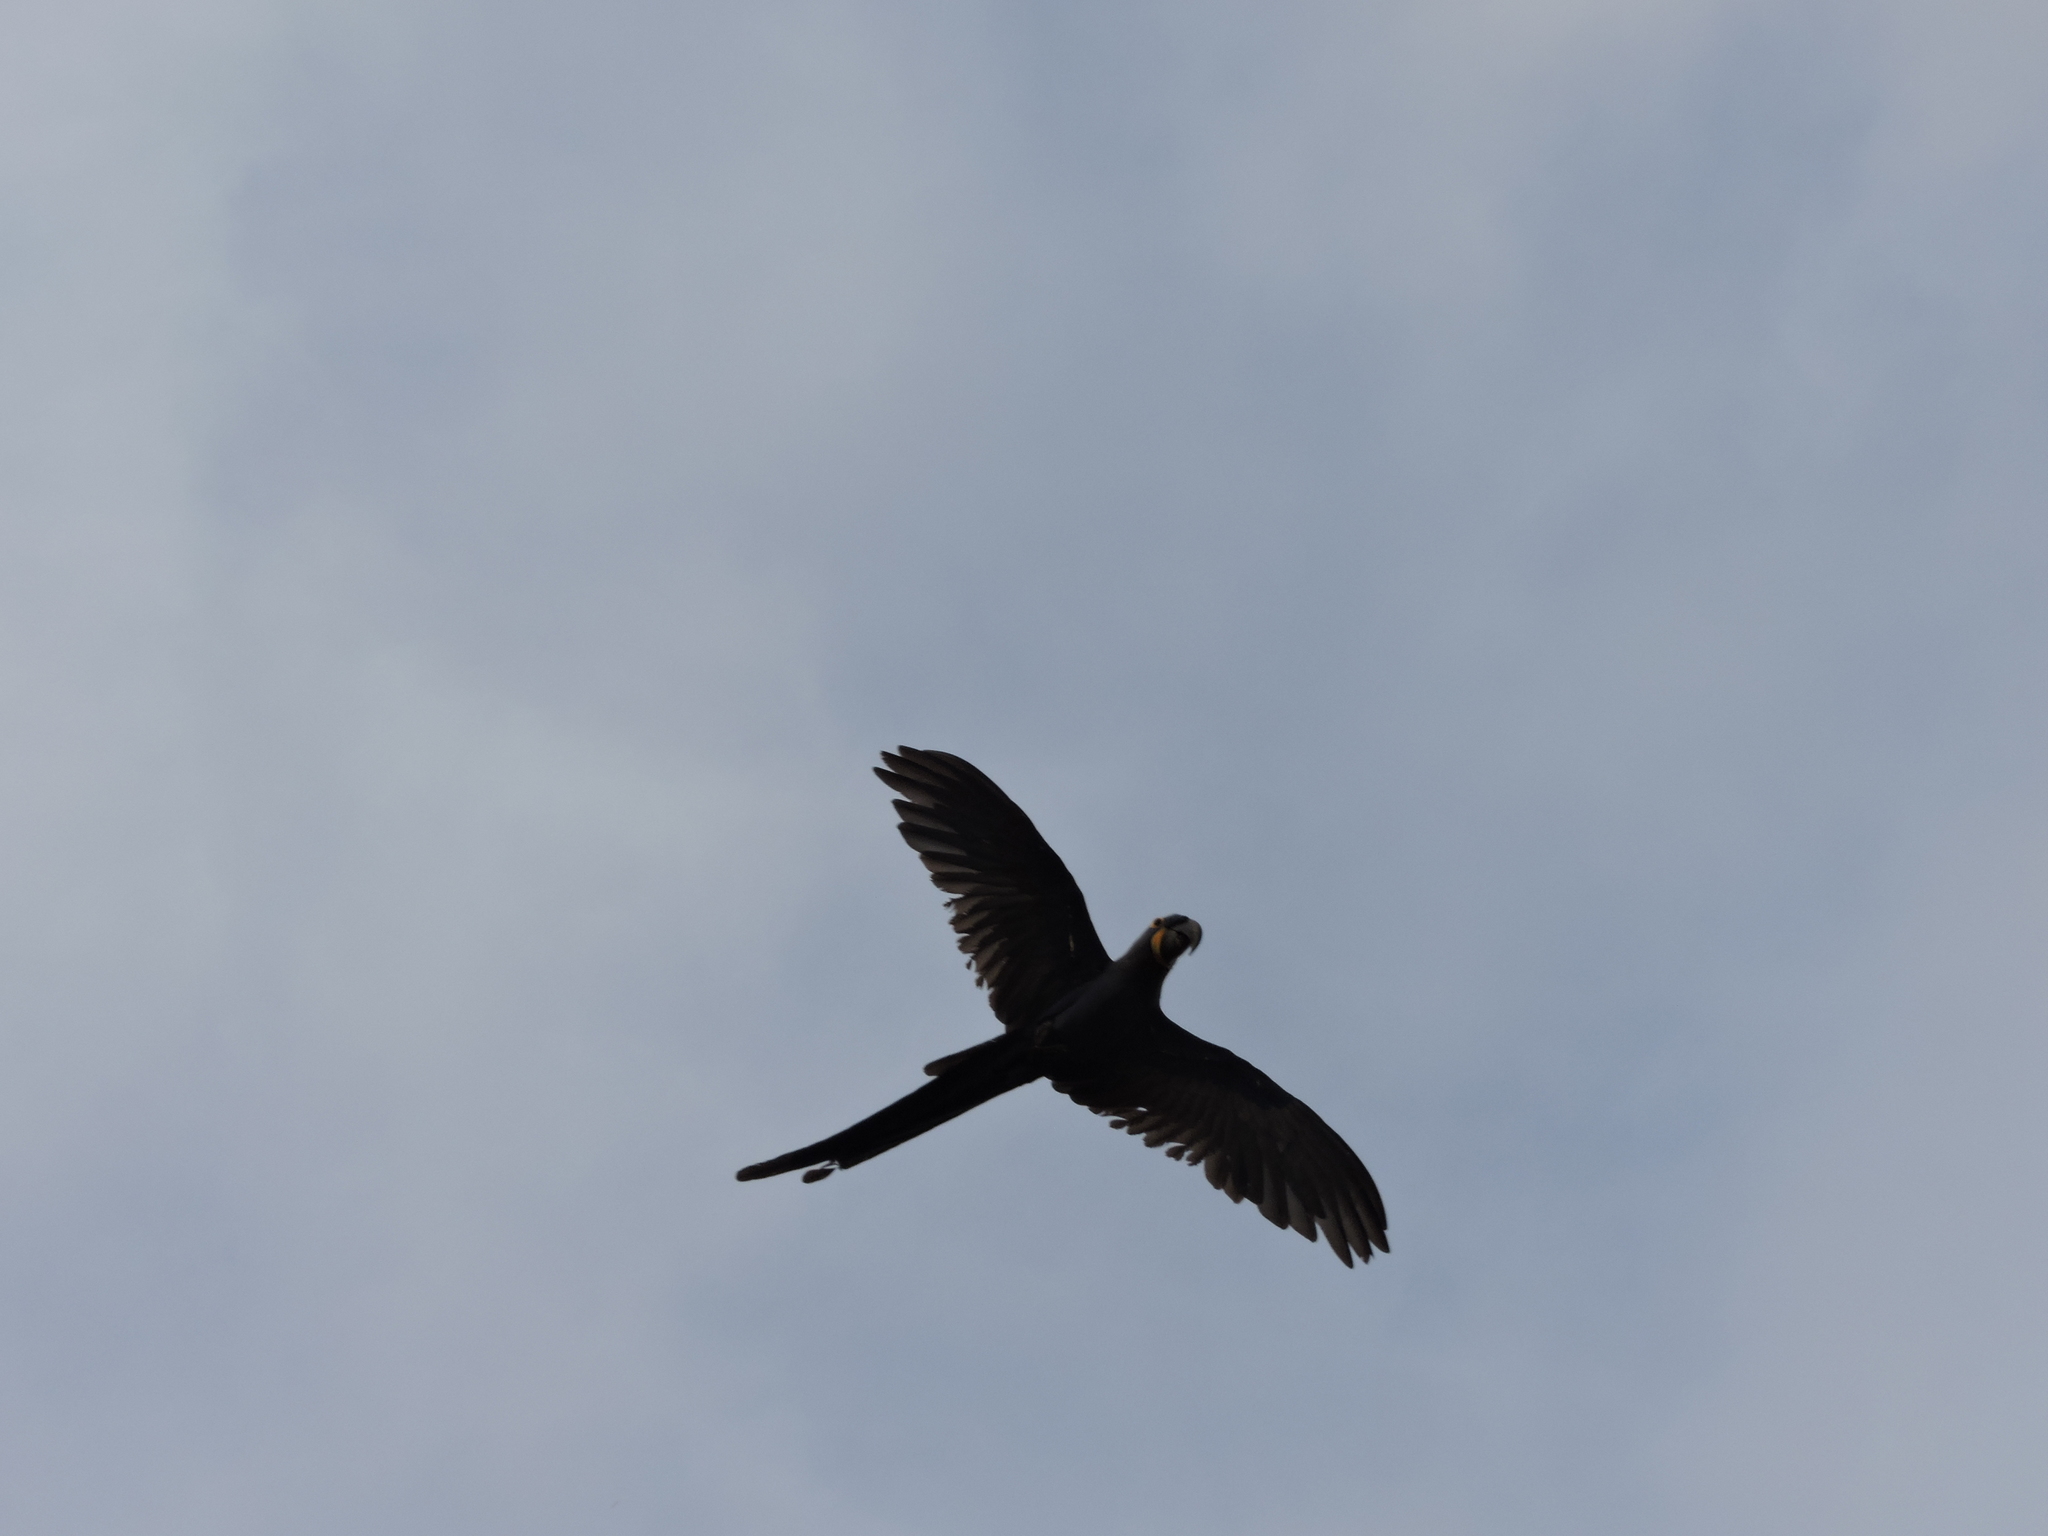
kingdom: Animalia
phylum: Chordata
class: Aves
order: Psittaciformes
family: Psittacidae
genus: Anodorhynchus
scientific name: Anodorhynchus hyacinthinus
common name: Hyacinth macaw
